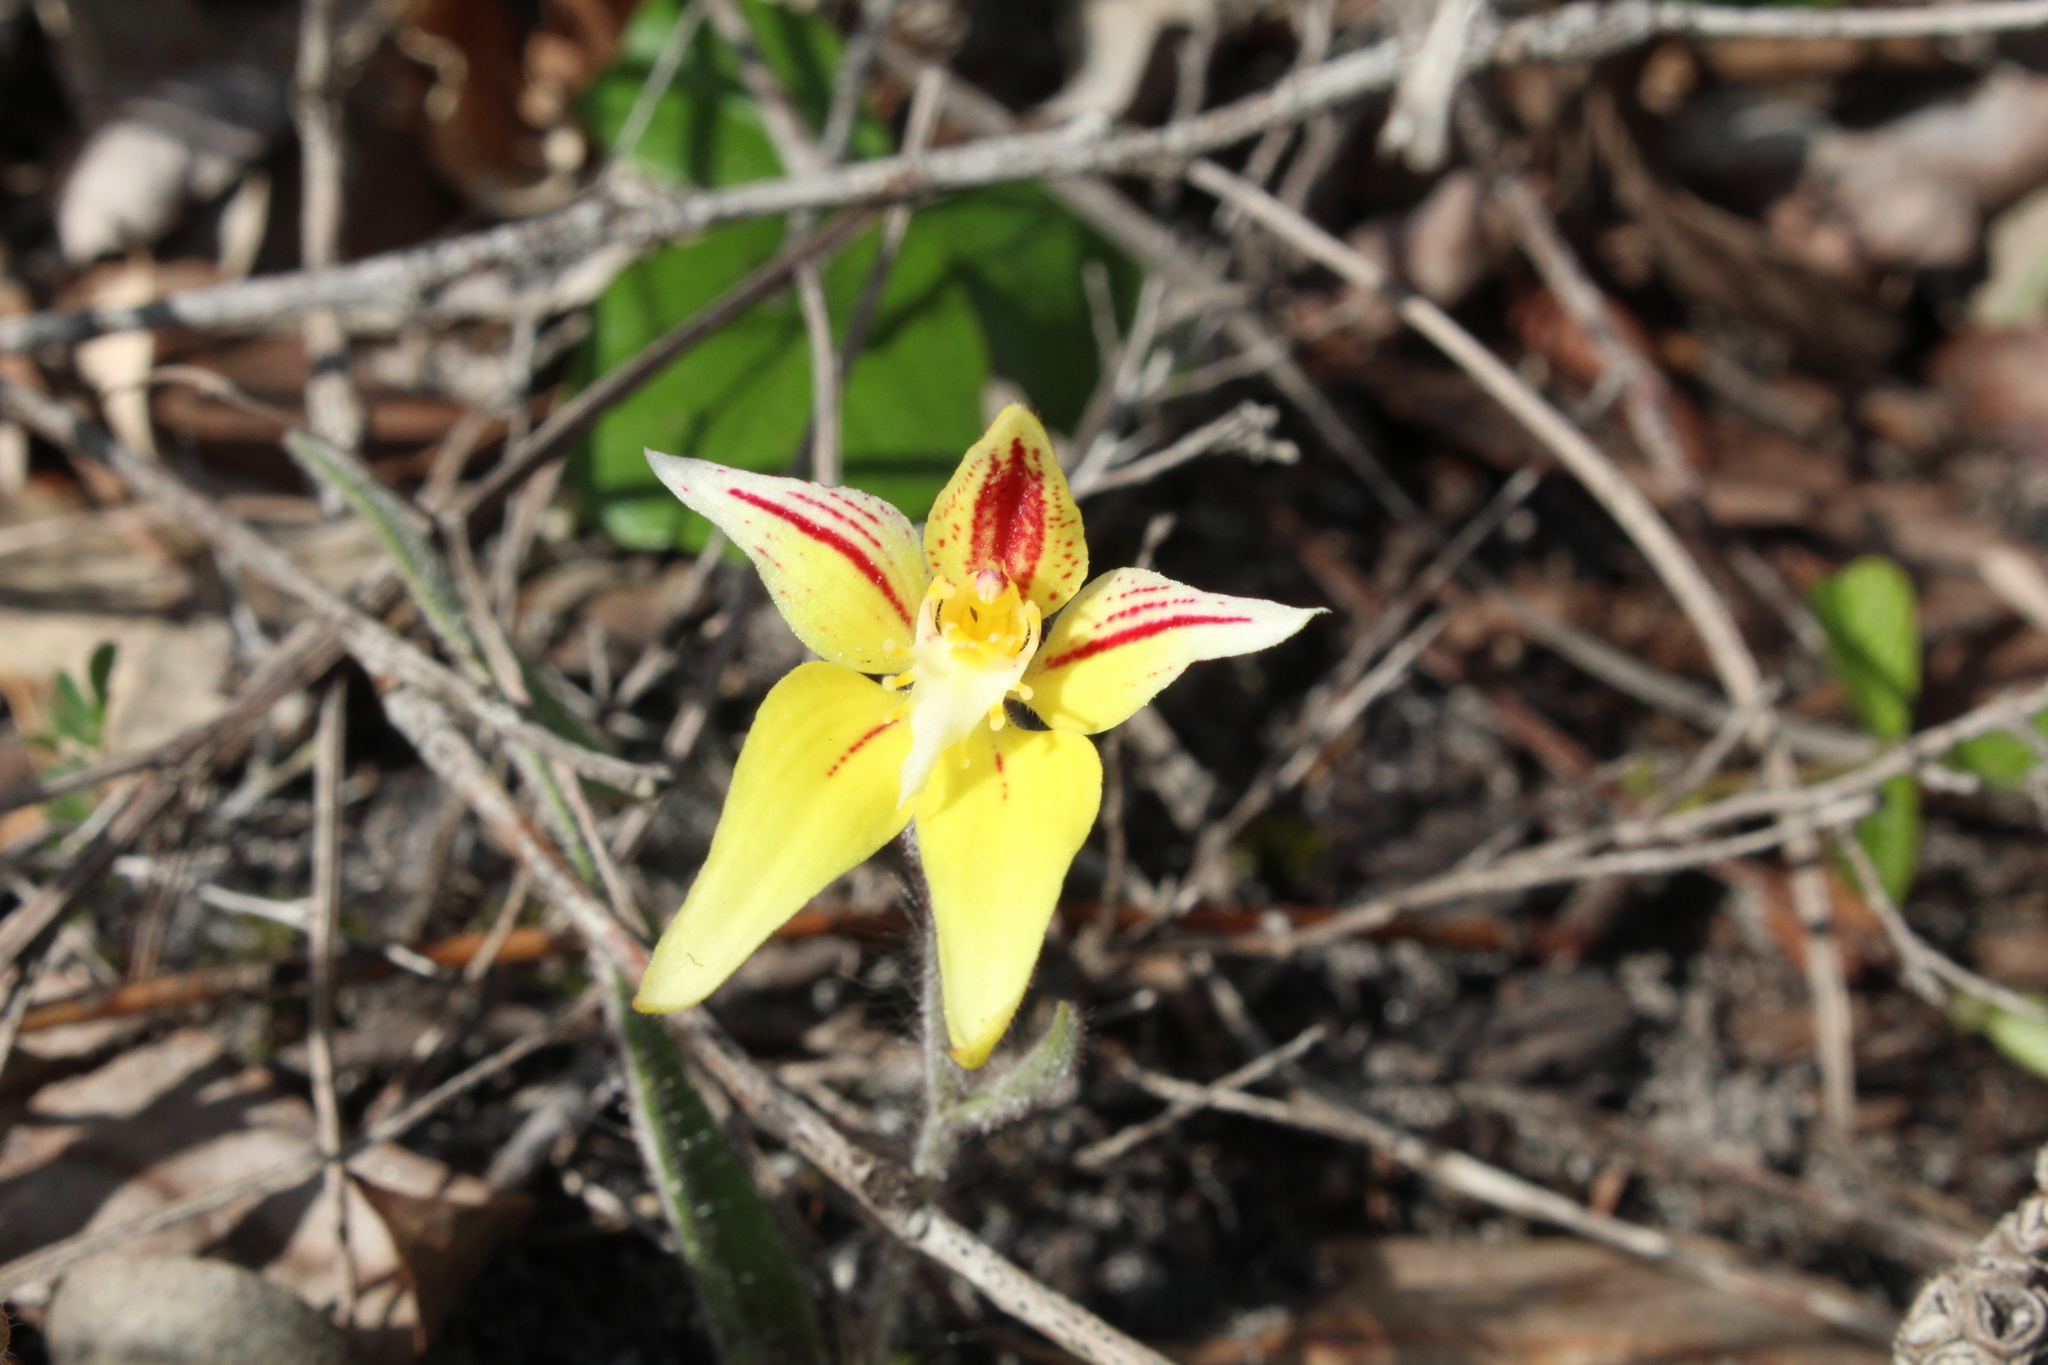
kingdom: Plantae
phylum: Tracheophyta
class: Liliopsida
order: Asparagales
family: Orchidaceae
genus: Caladenia
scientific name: Caladenia flava
